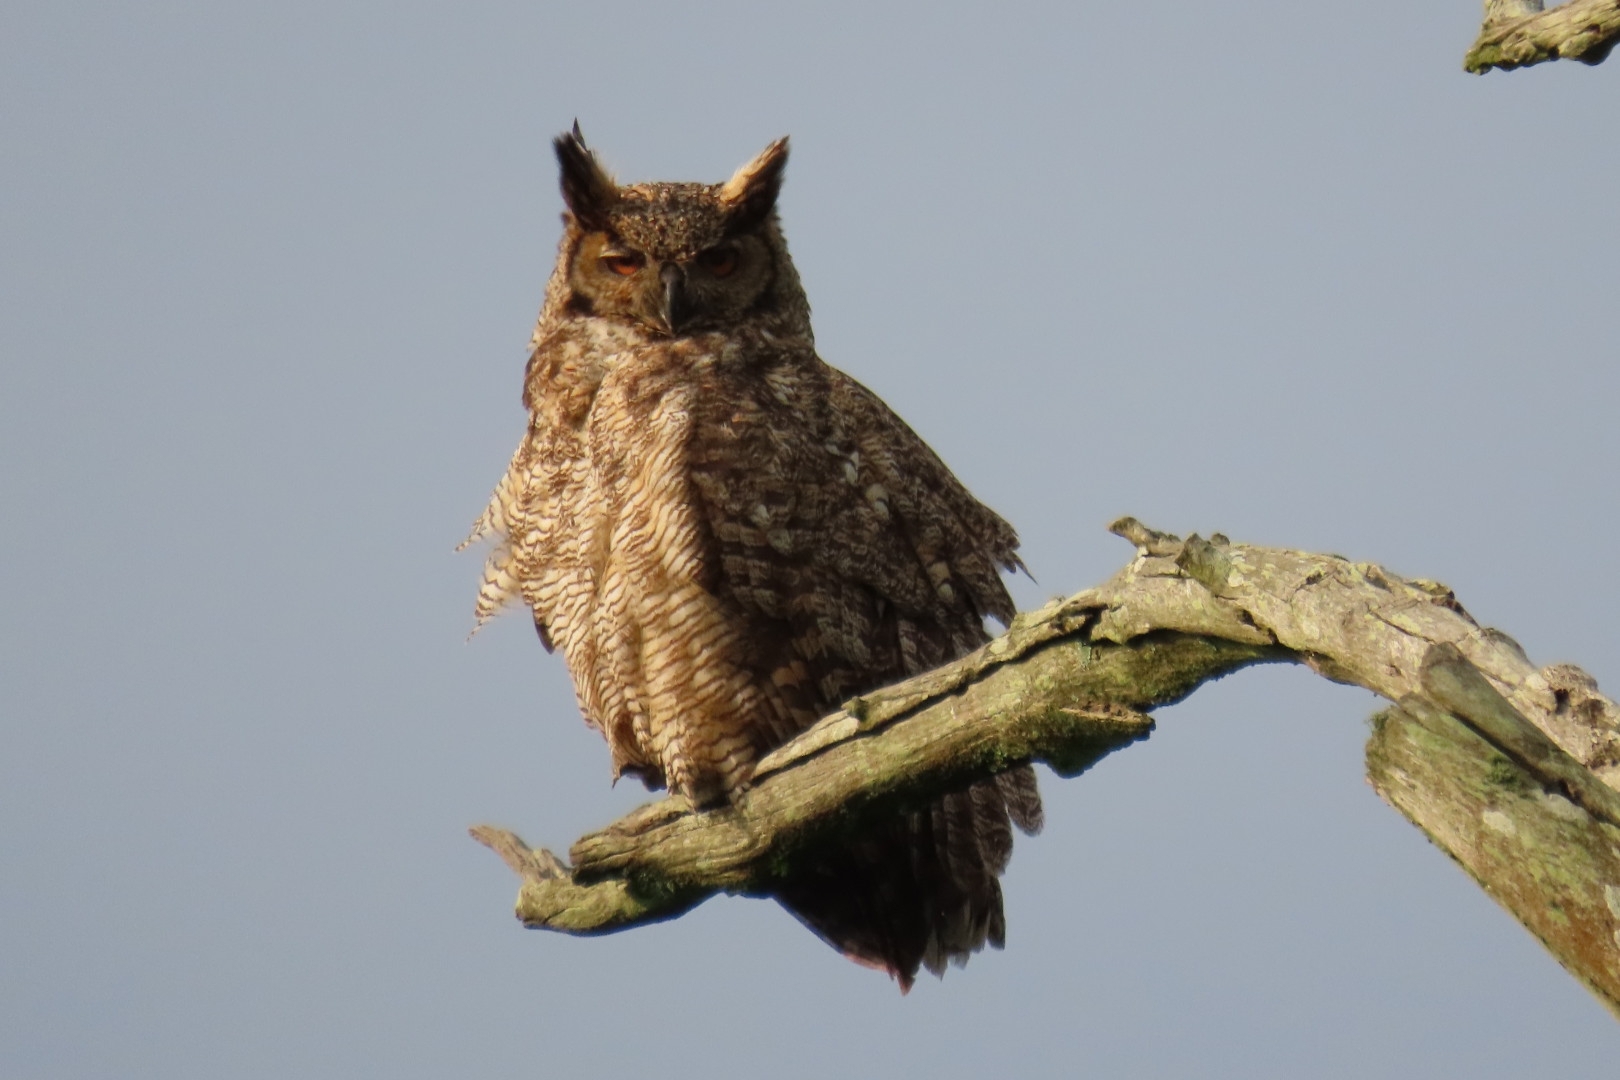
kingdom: Animalia
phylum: Chordata
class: Aves
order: Strigiformes
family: Strigidae
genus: Bubo
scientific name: Bubo virginianus
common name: Great horned owl
